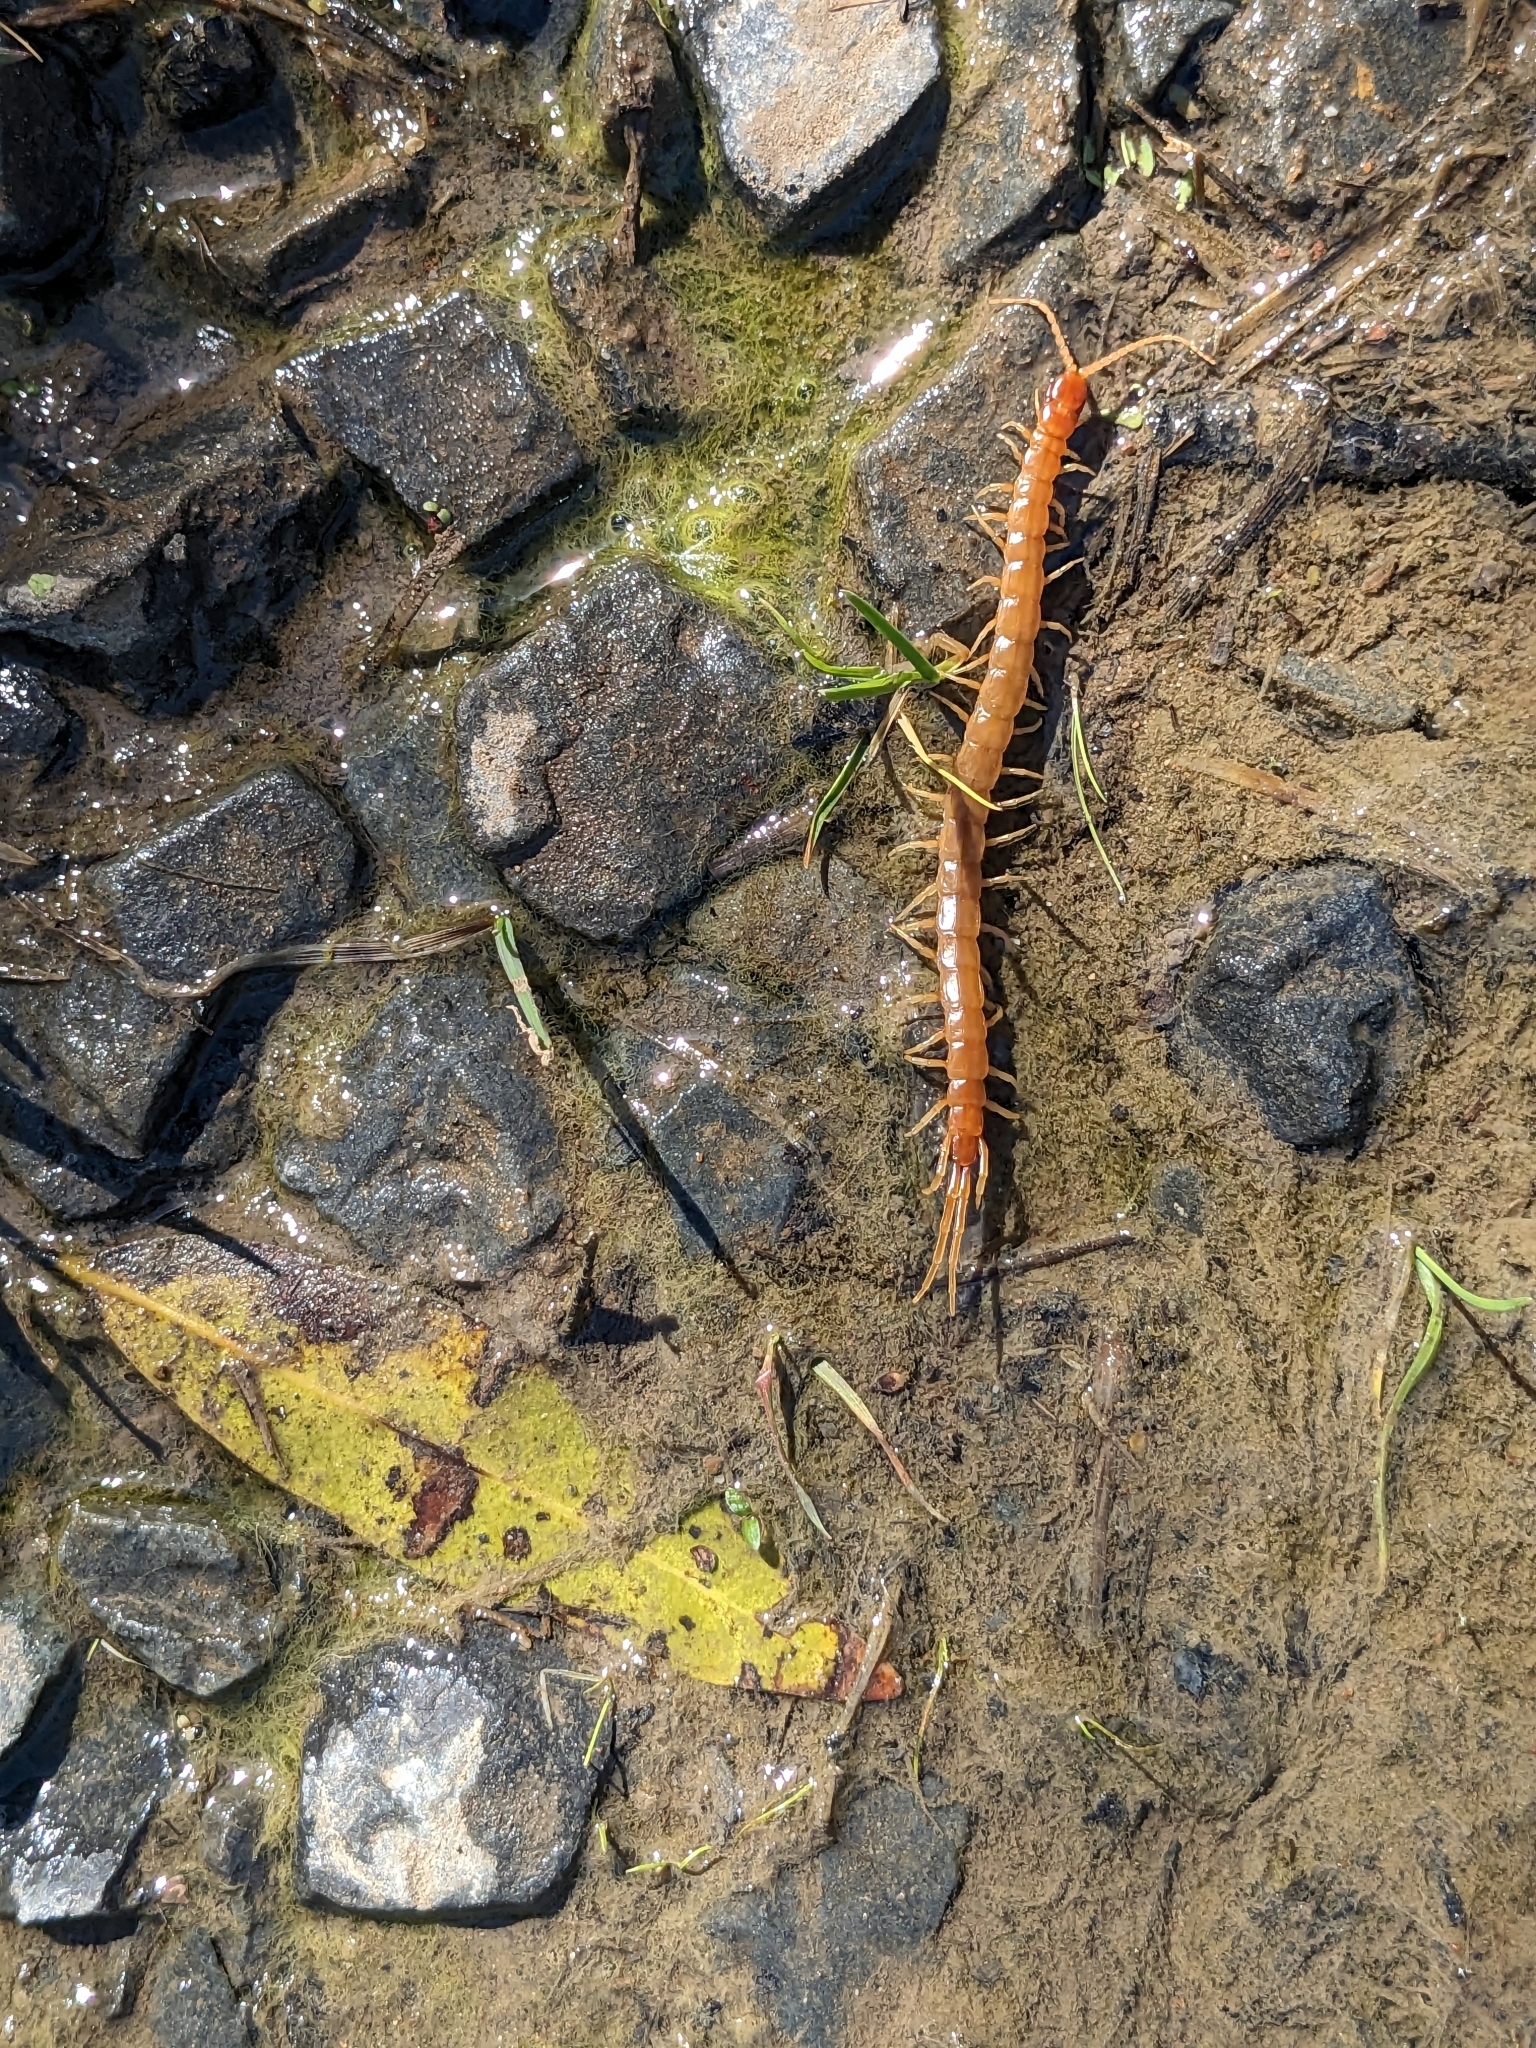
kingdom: Animalia
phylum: Arthropoda
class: Chilopoda
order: Scolopendromorpha
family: Scolopocryptopidae
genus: Scolopocryptops
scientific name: Scolopocryptops gracilis
